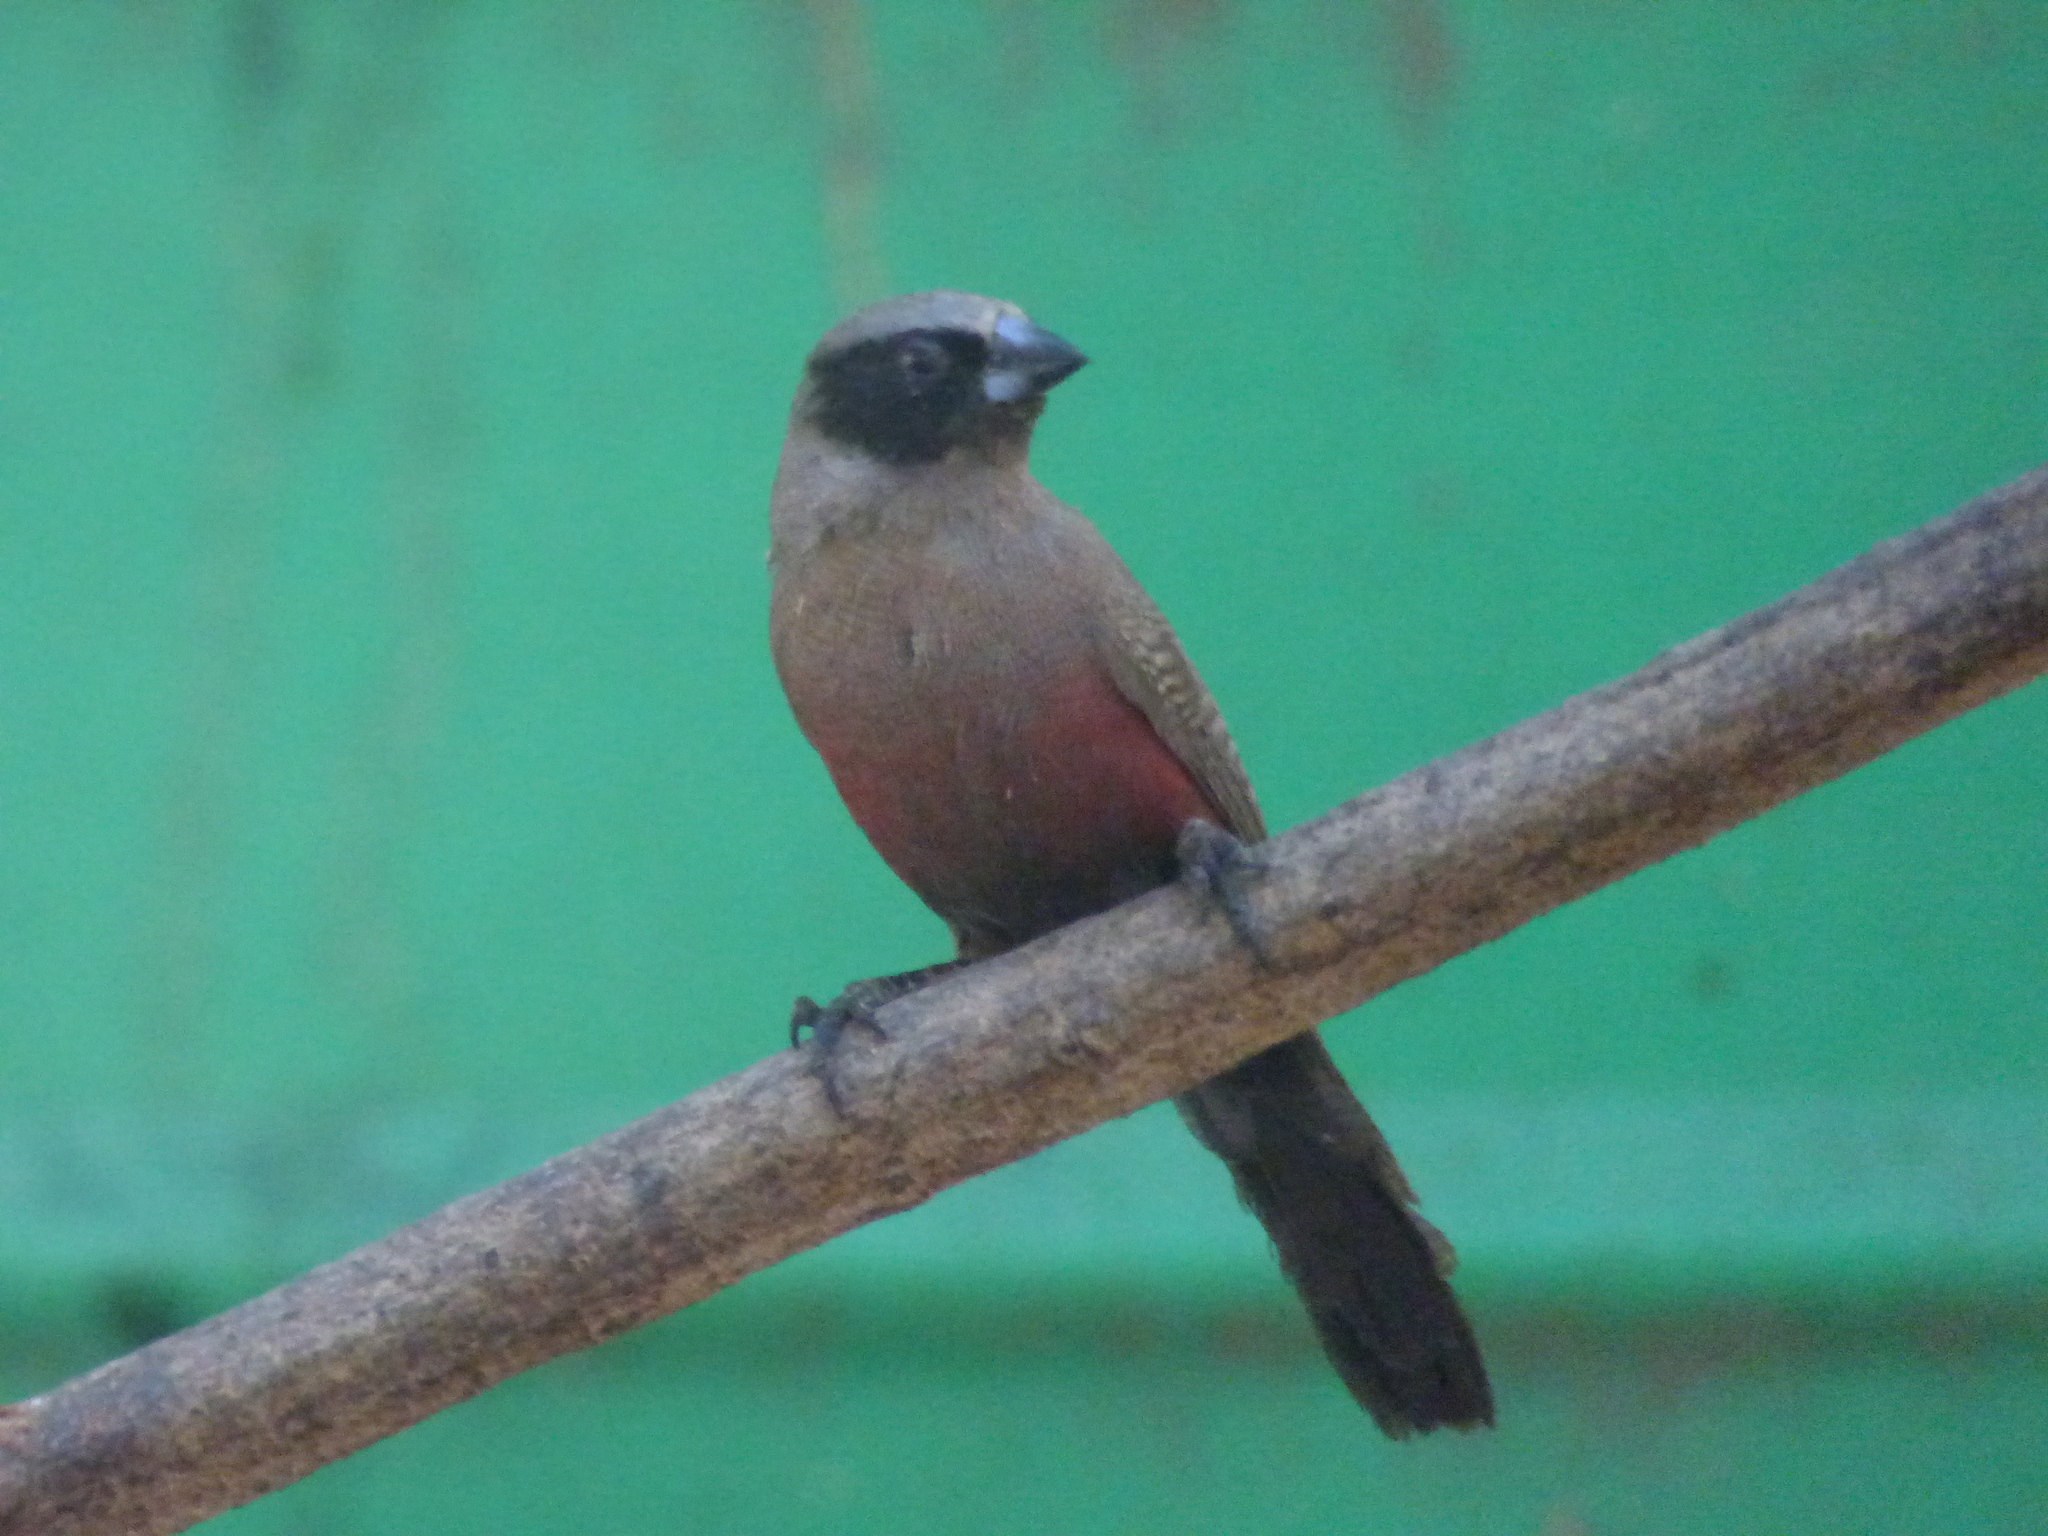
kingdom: Animalia
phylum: Chordata
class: Aves
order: Passeriformes
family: Estrildidae
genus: Estrilda
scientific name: Estrilda erythronotos
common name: Black-faced waxbill
